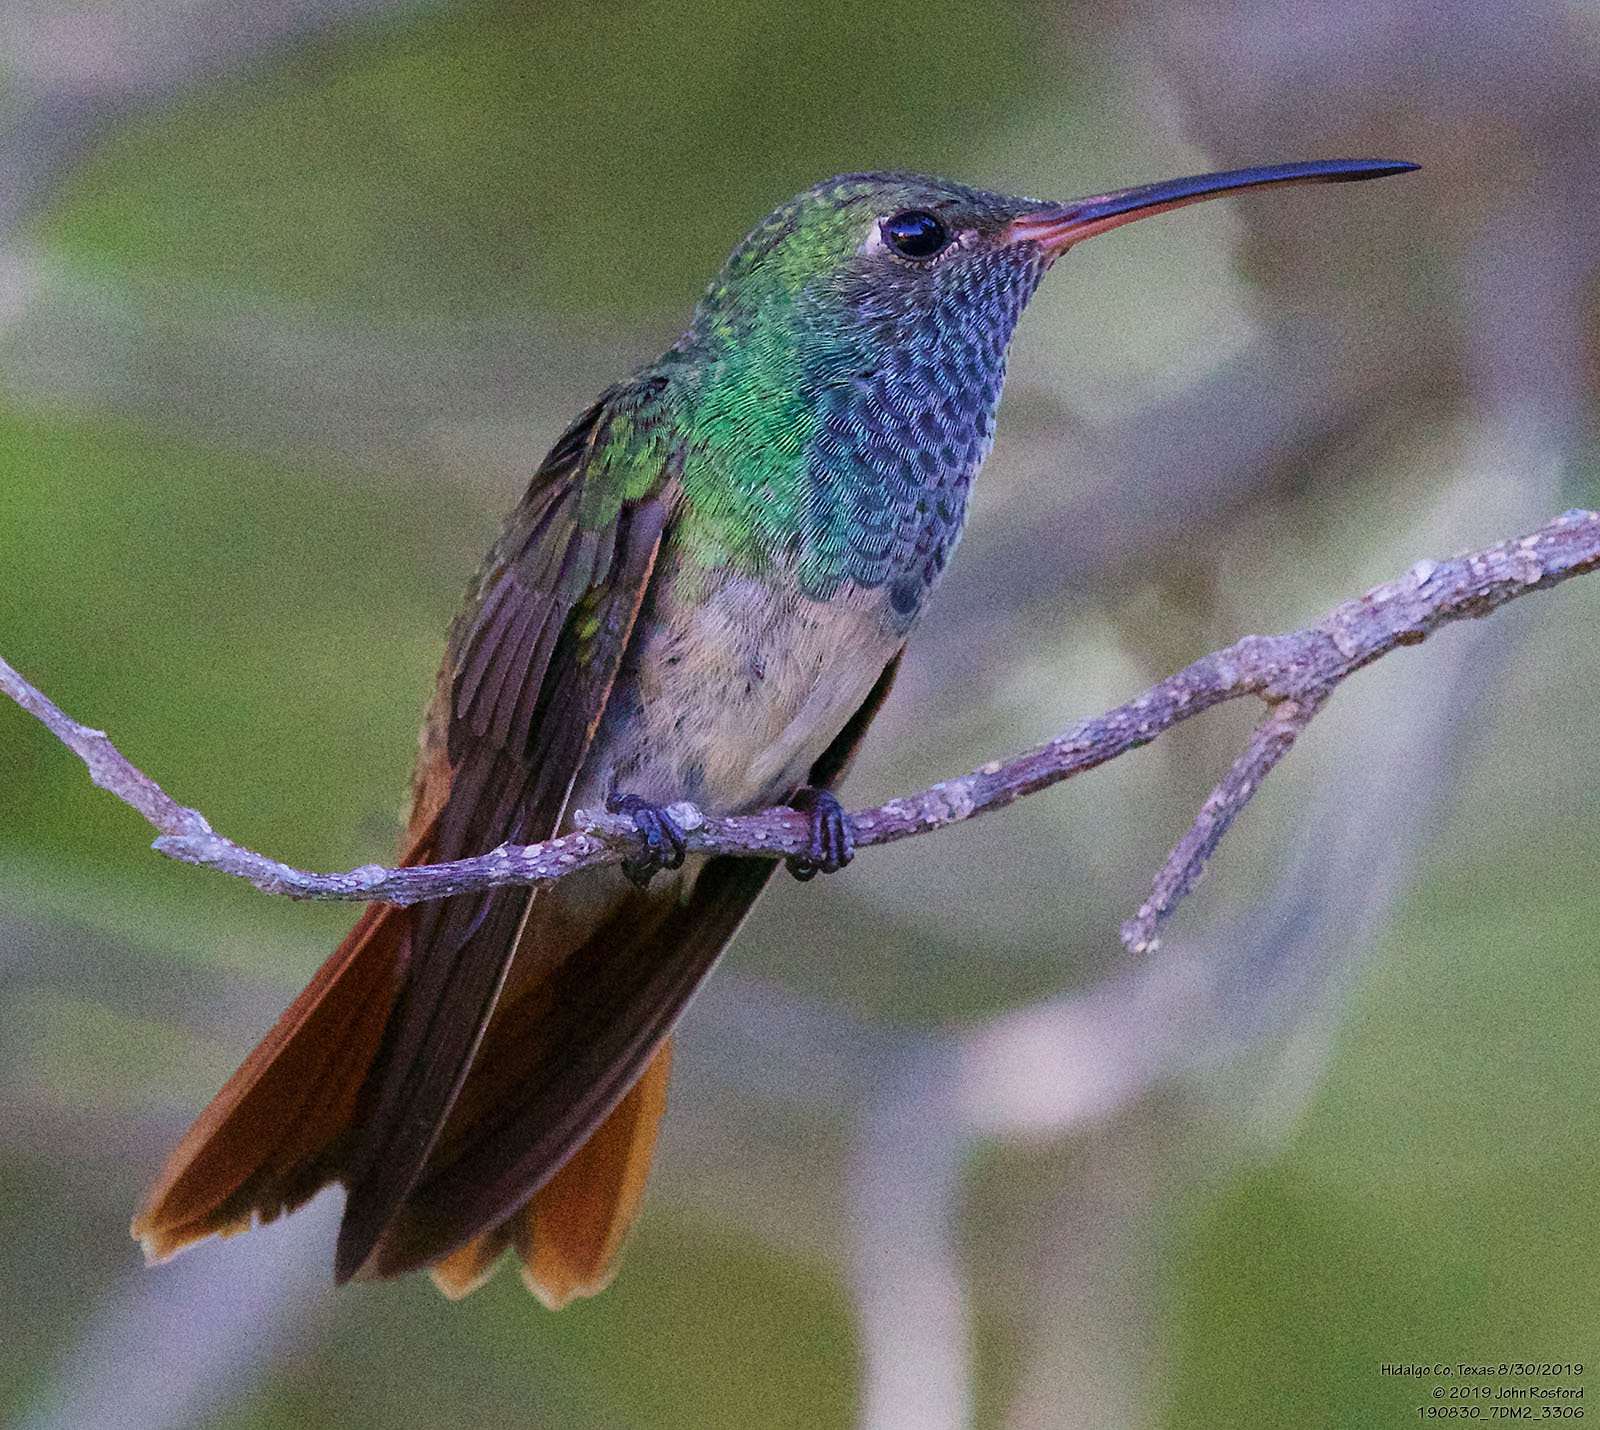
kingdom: Animalia
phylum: Chordata
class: Aves
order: Apodiformes
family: Trochilidae
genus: Amazilia
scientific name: Amazilia yucatanensis
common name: Buff-bellied hummingbird
